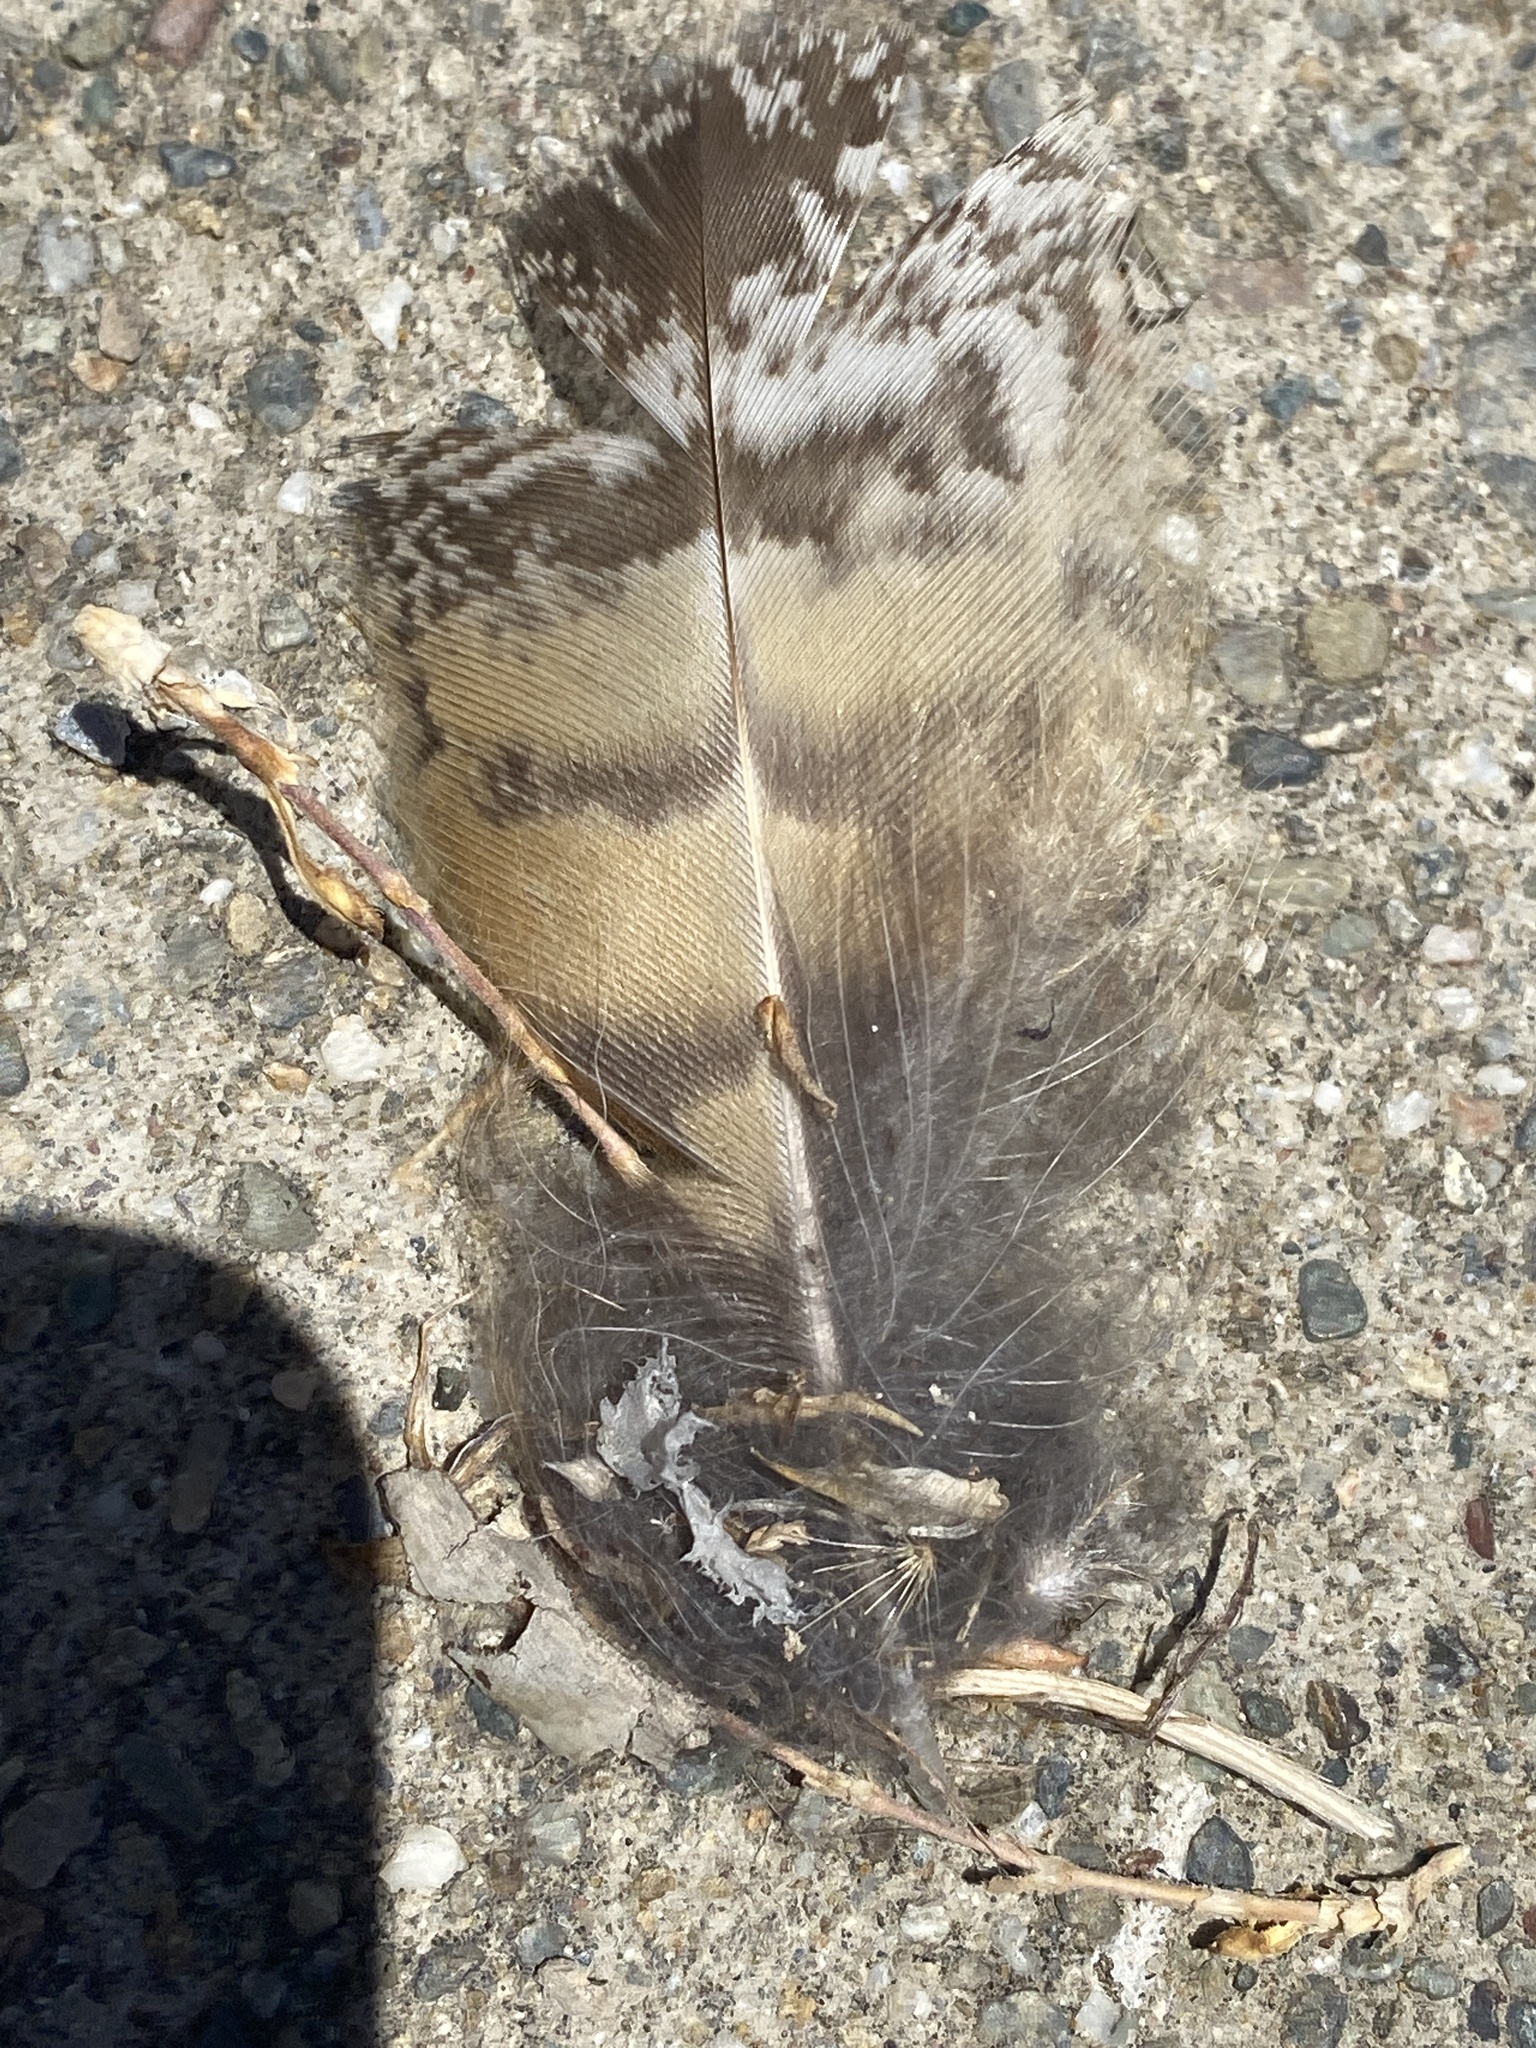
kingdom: Animalia
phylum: Chordata
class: Aves
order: Strigiformes
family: Strigidae
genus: Bubo
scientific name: Bubo virginianus
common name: Great horned owl
